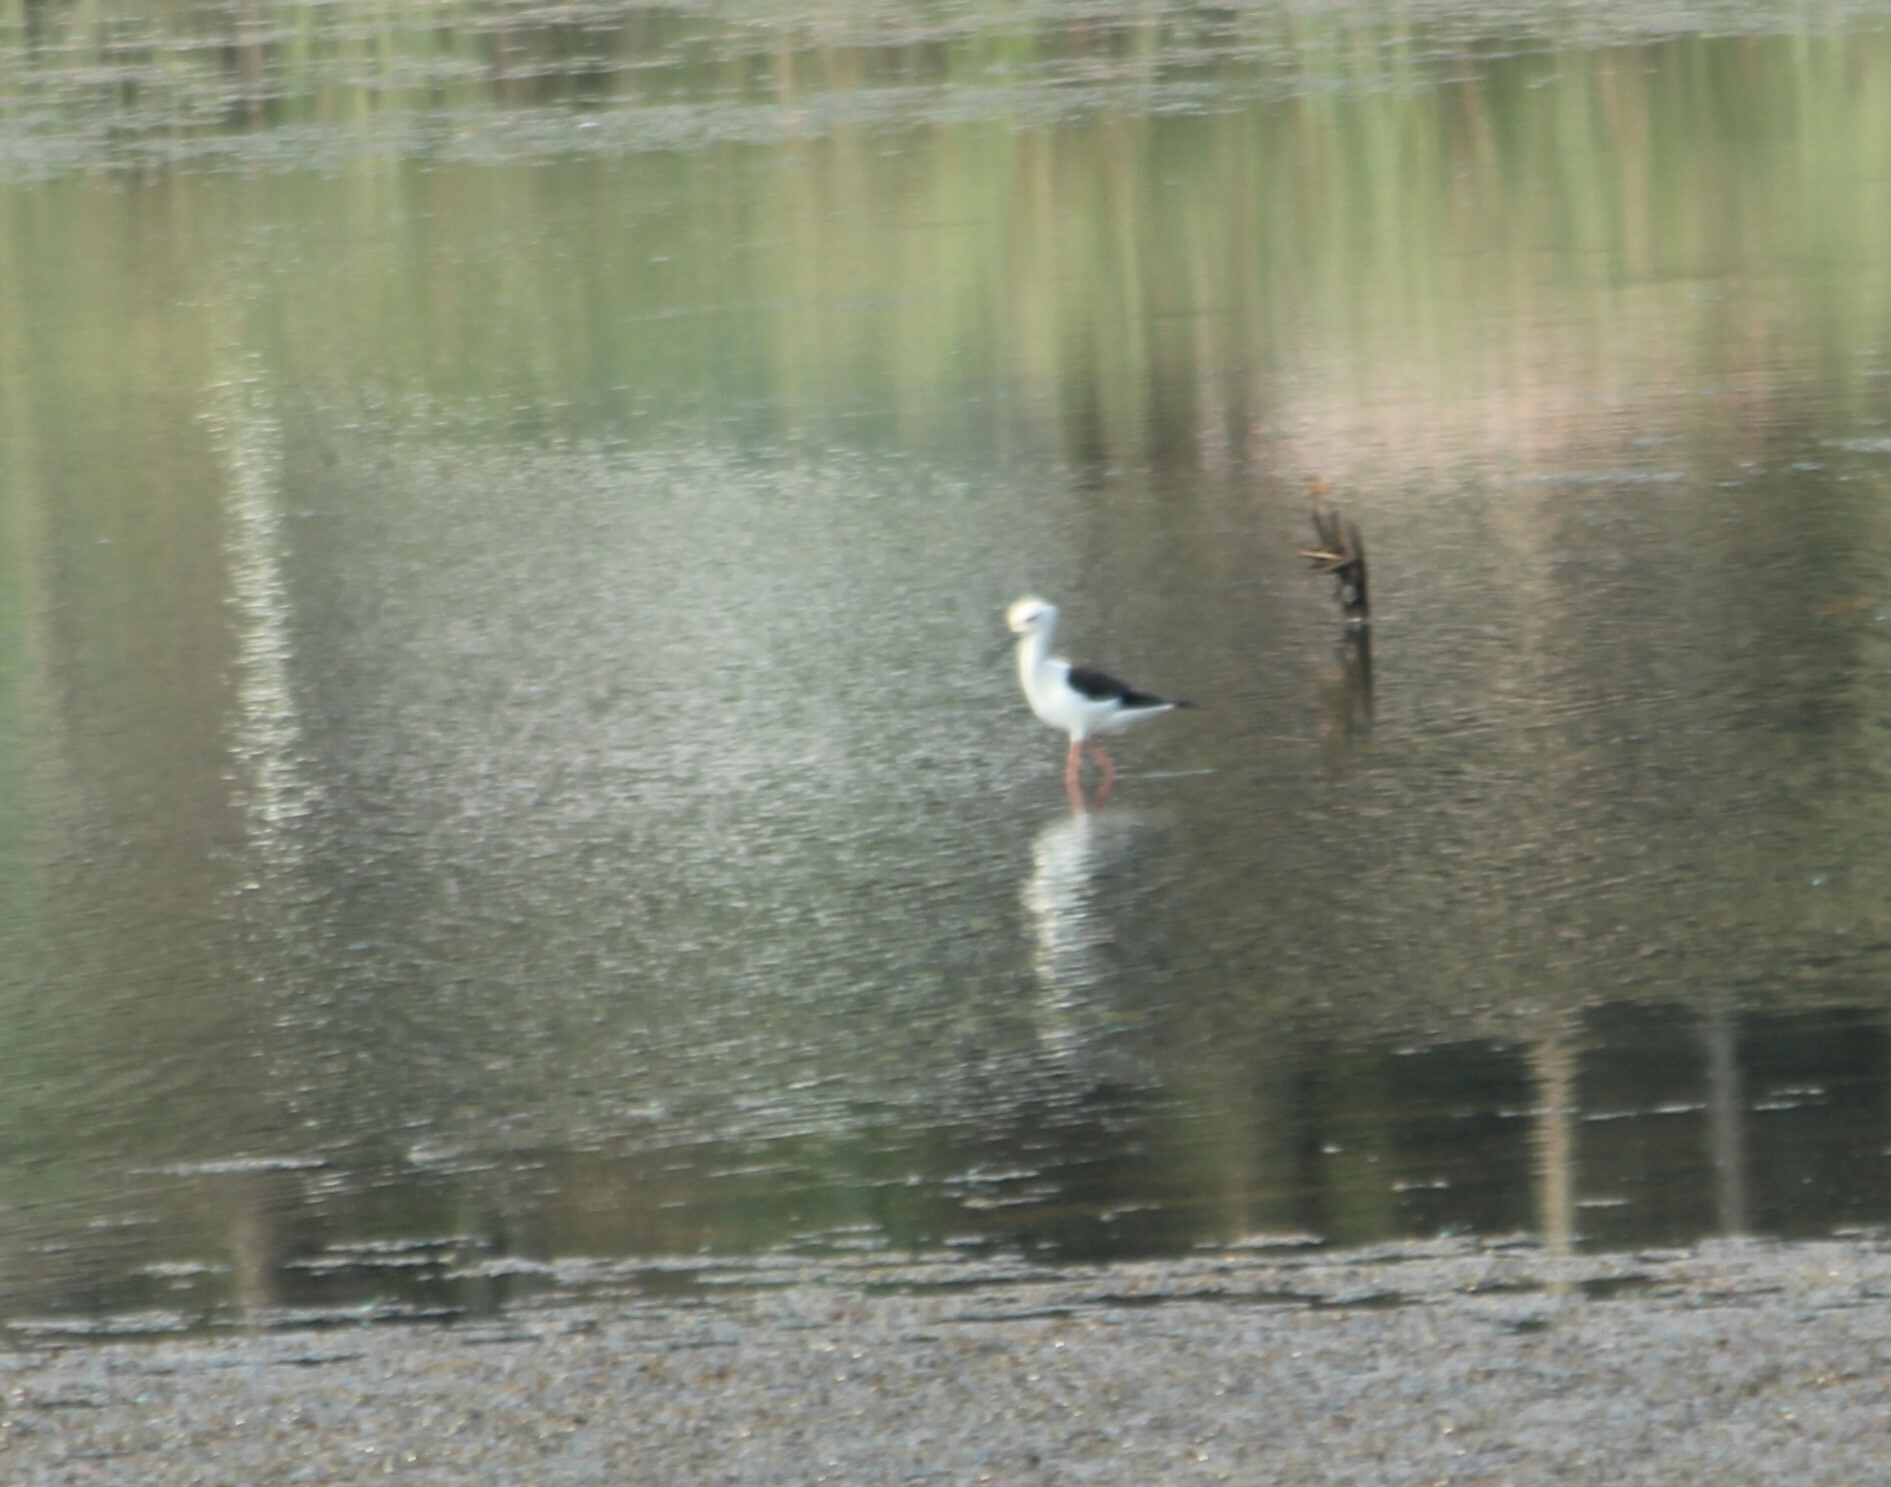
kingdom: Animalia
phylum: Chordata
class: Aves
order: Charadriiformes
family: Recurvirostridae
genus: Himantopus
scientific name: Himantopus himantopus
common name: Black-winged stilt
